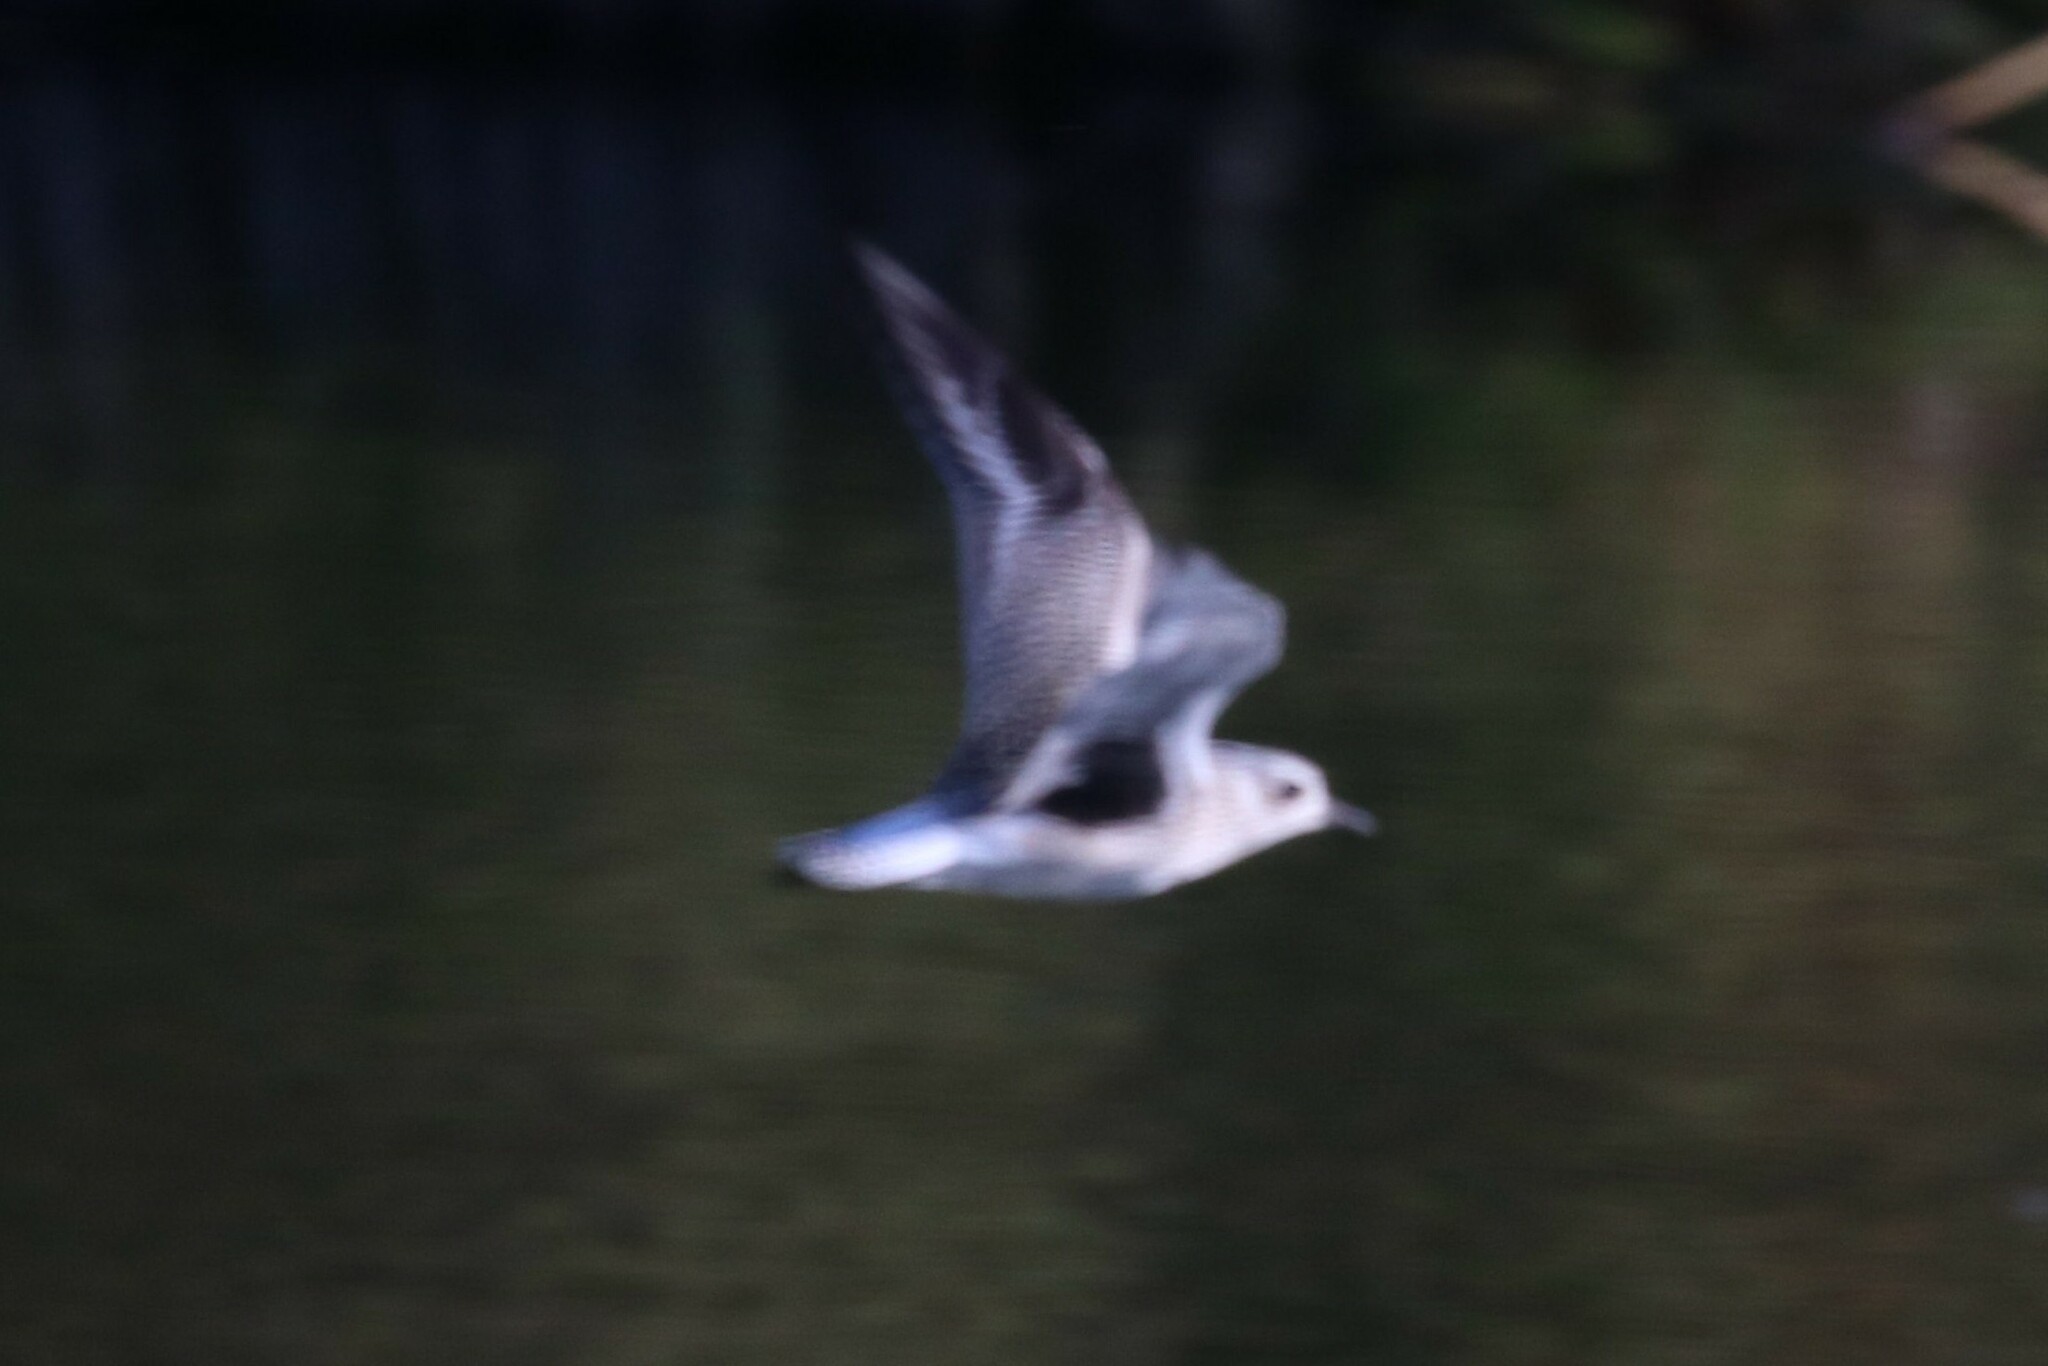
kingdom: Animalia
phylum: Chordata
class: Aves
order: Charadriiformes
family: Charadriidae
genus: Pluvialis
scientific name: Pluvialis squatarola
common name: Grey plover
